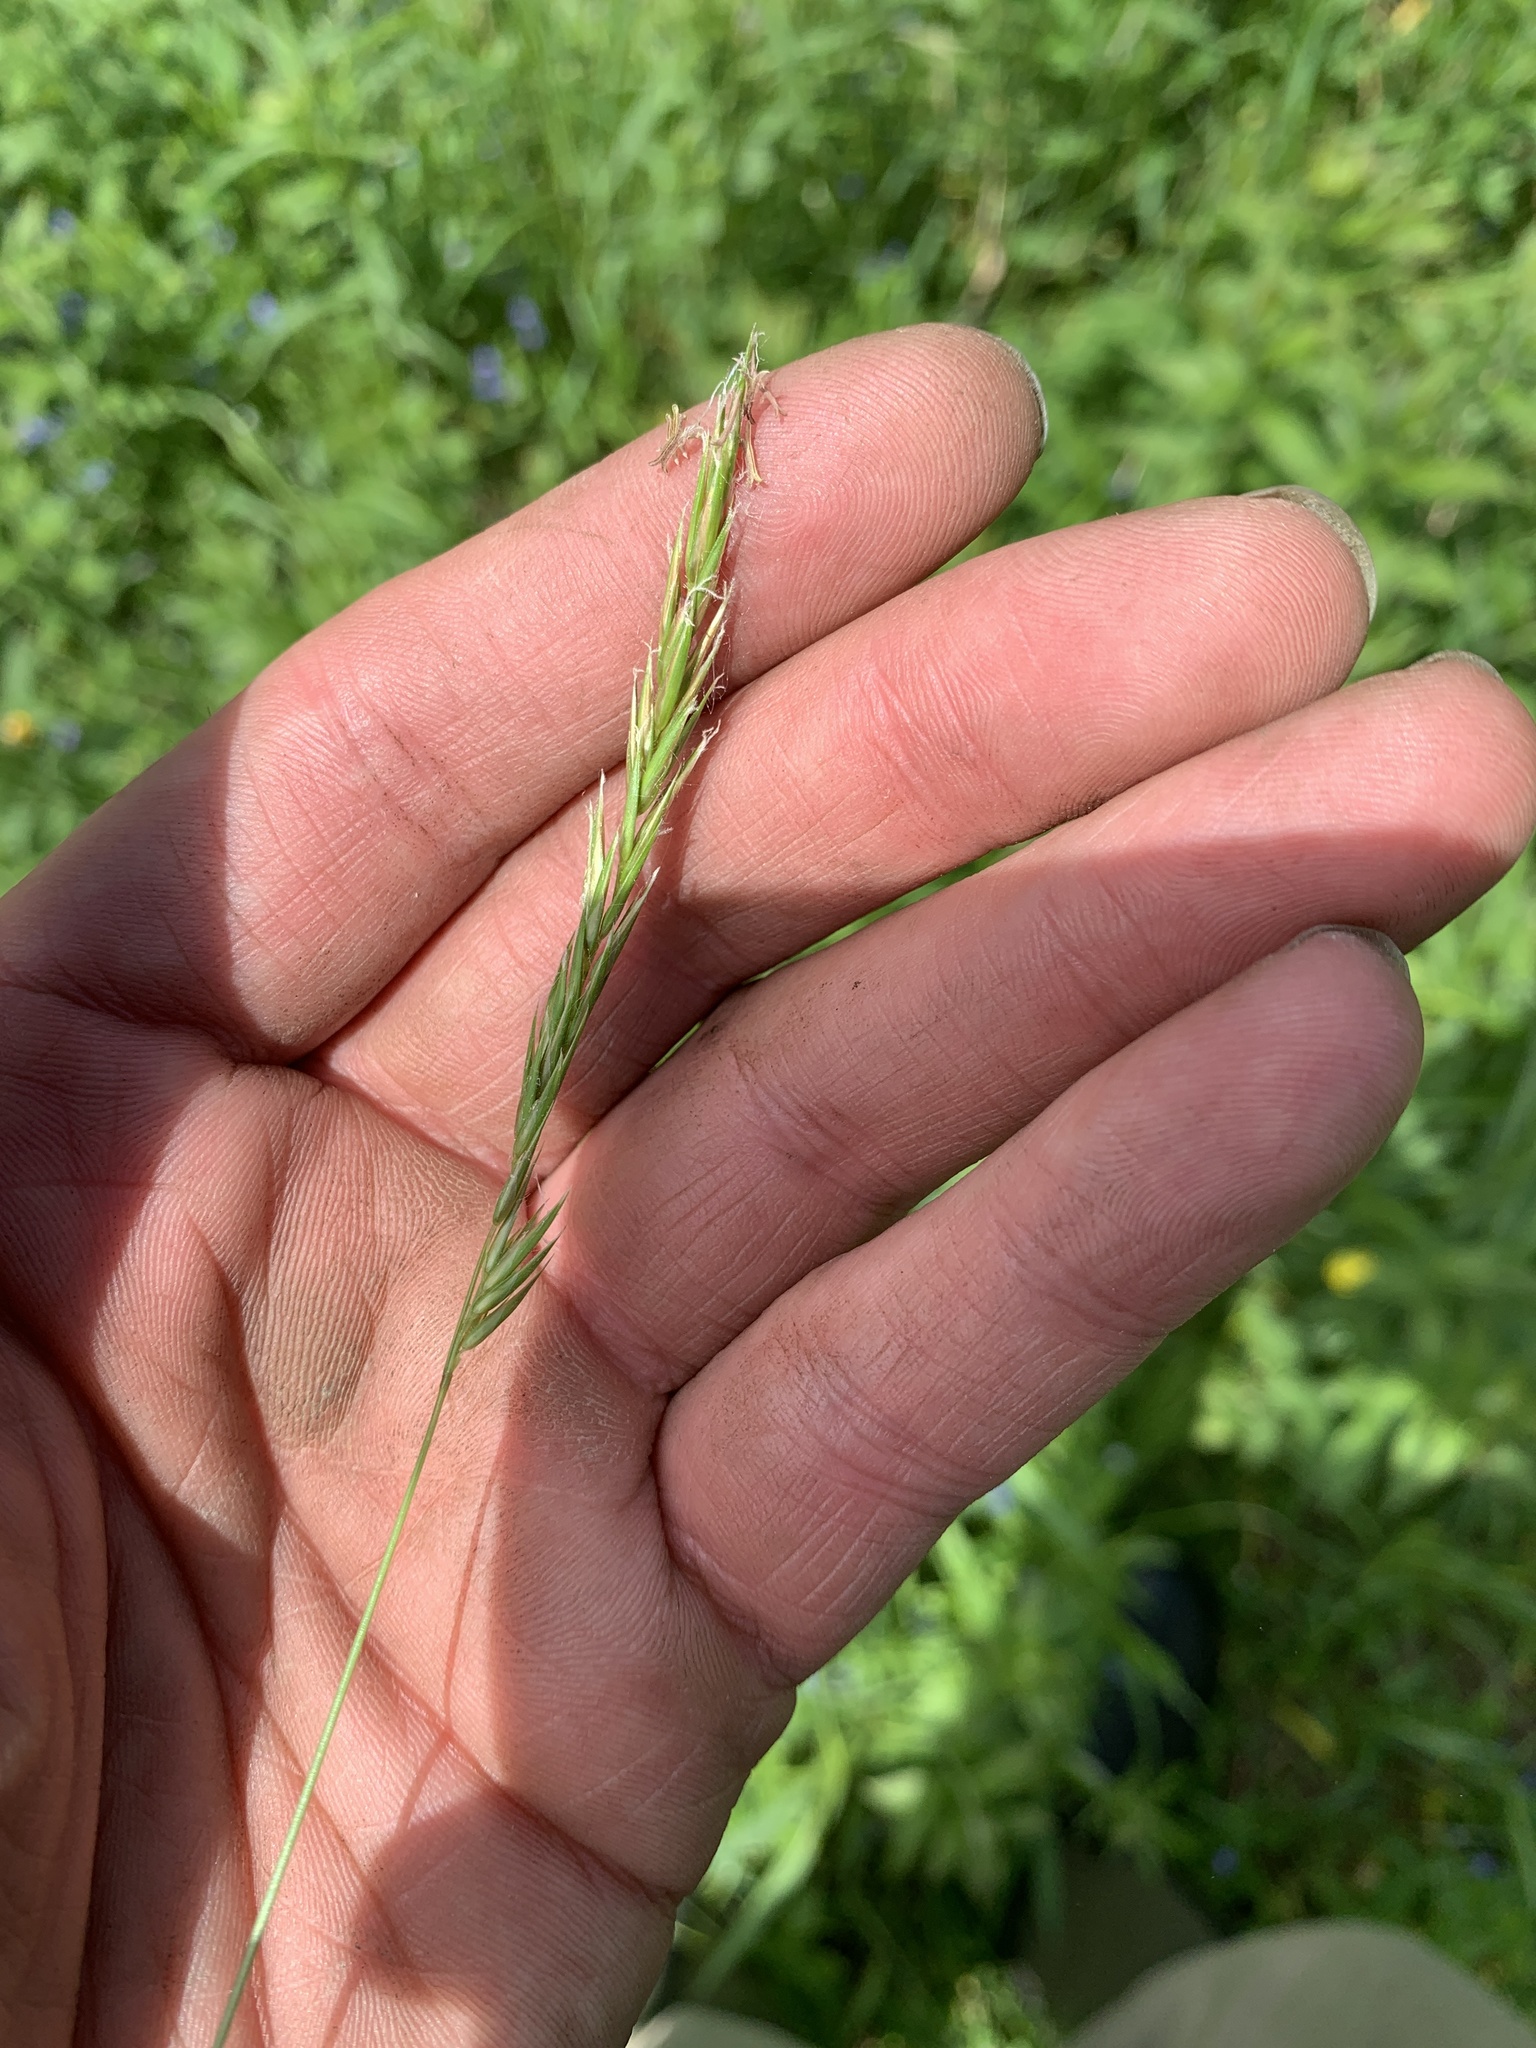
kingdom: Plantae
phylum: Tracheophyta
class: Liliopsida
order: Poales
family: Poaceae
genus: Anthoxanthum
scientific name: Anthoxanthum odoratum
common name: Sweet vernalgrass
